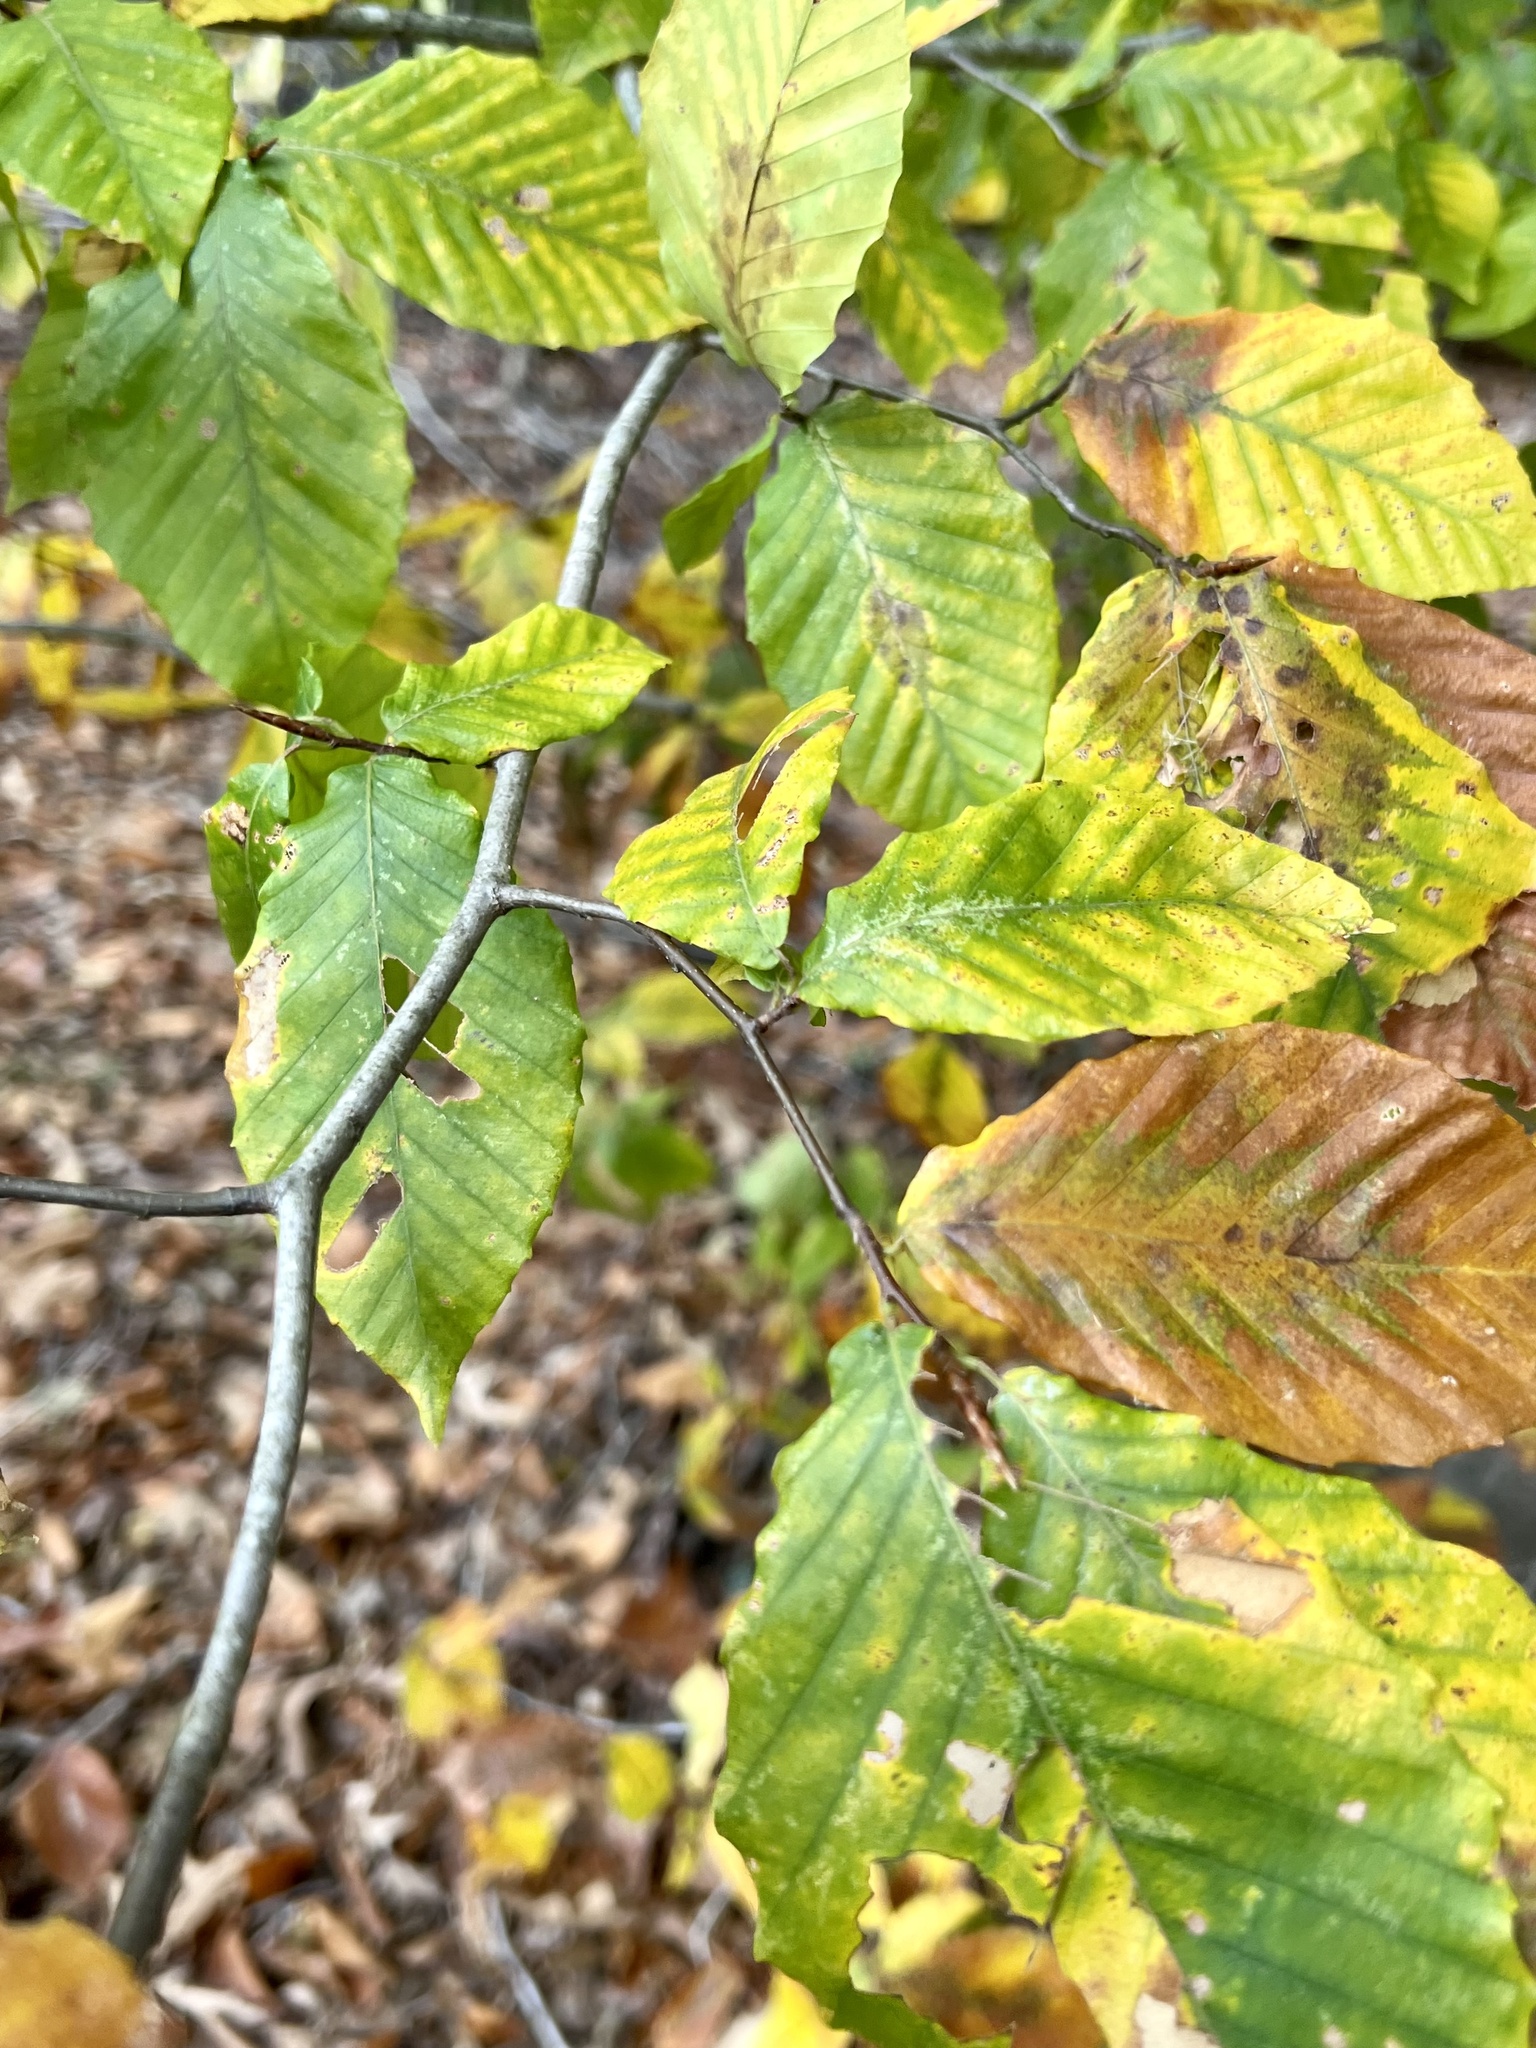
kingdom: Plantae
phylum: Tracheophyta
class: Magnoliopsida
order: Fagales
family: Fagaceae
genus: Fagus
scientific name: Fagus grandifolia
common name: American beech
